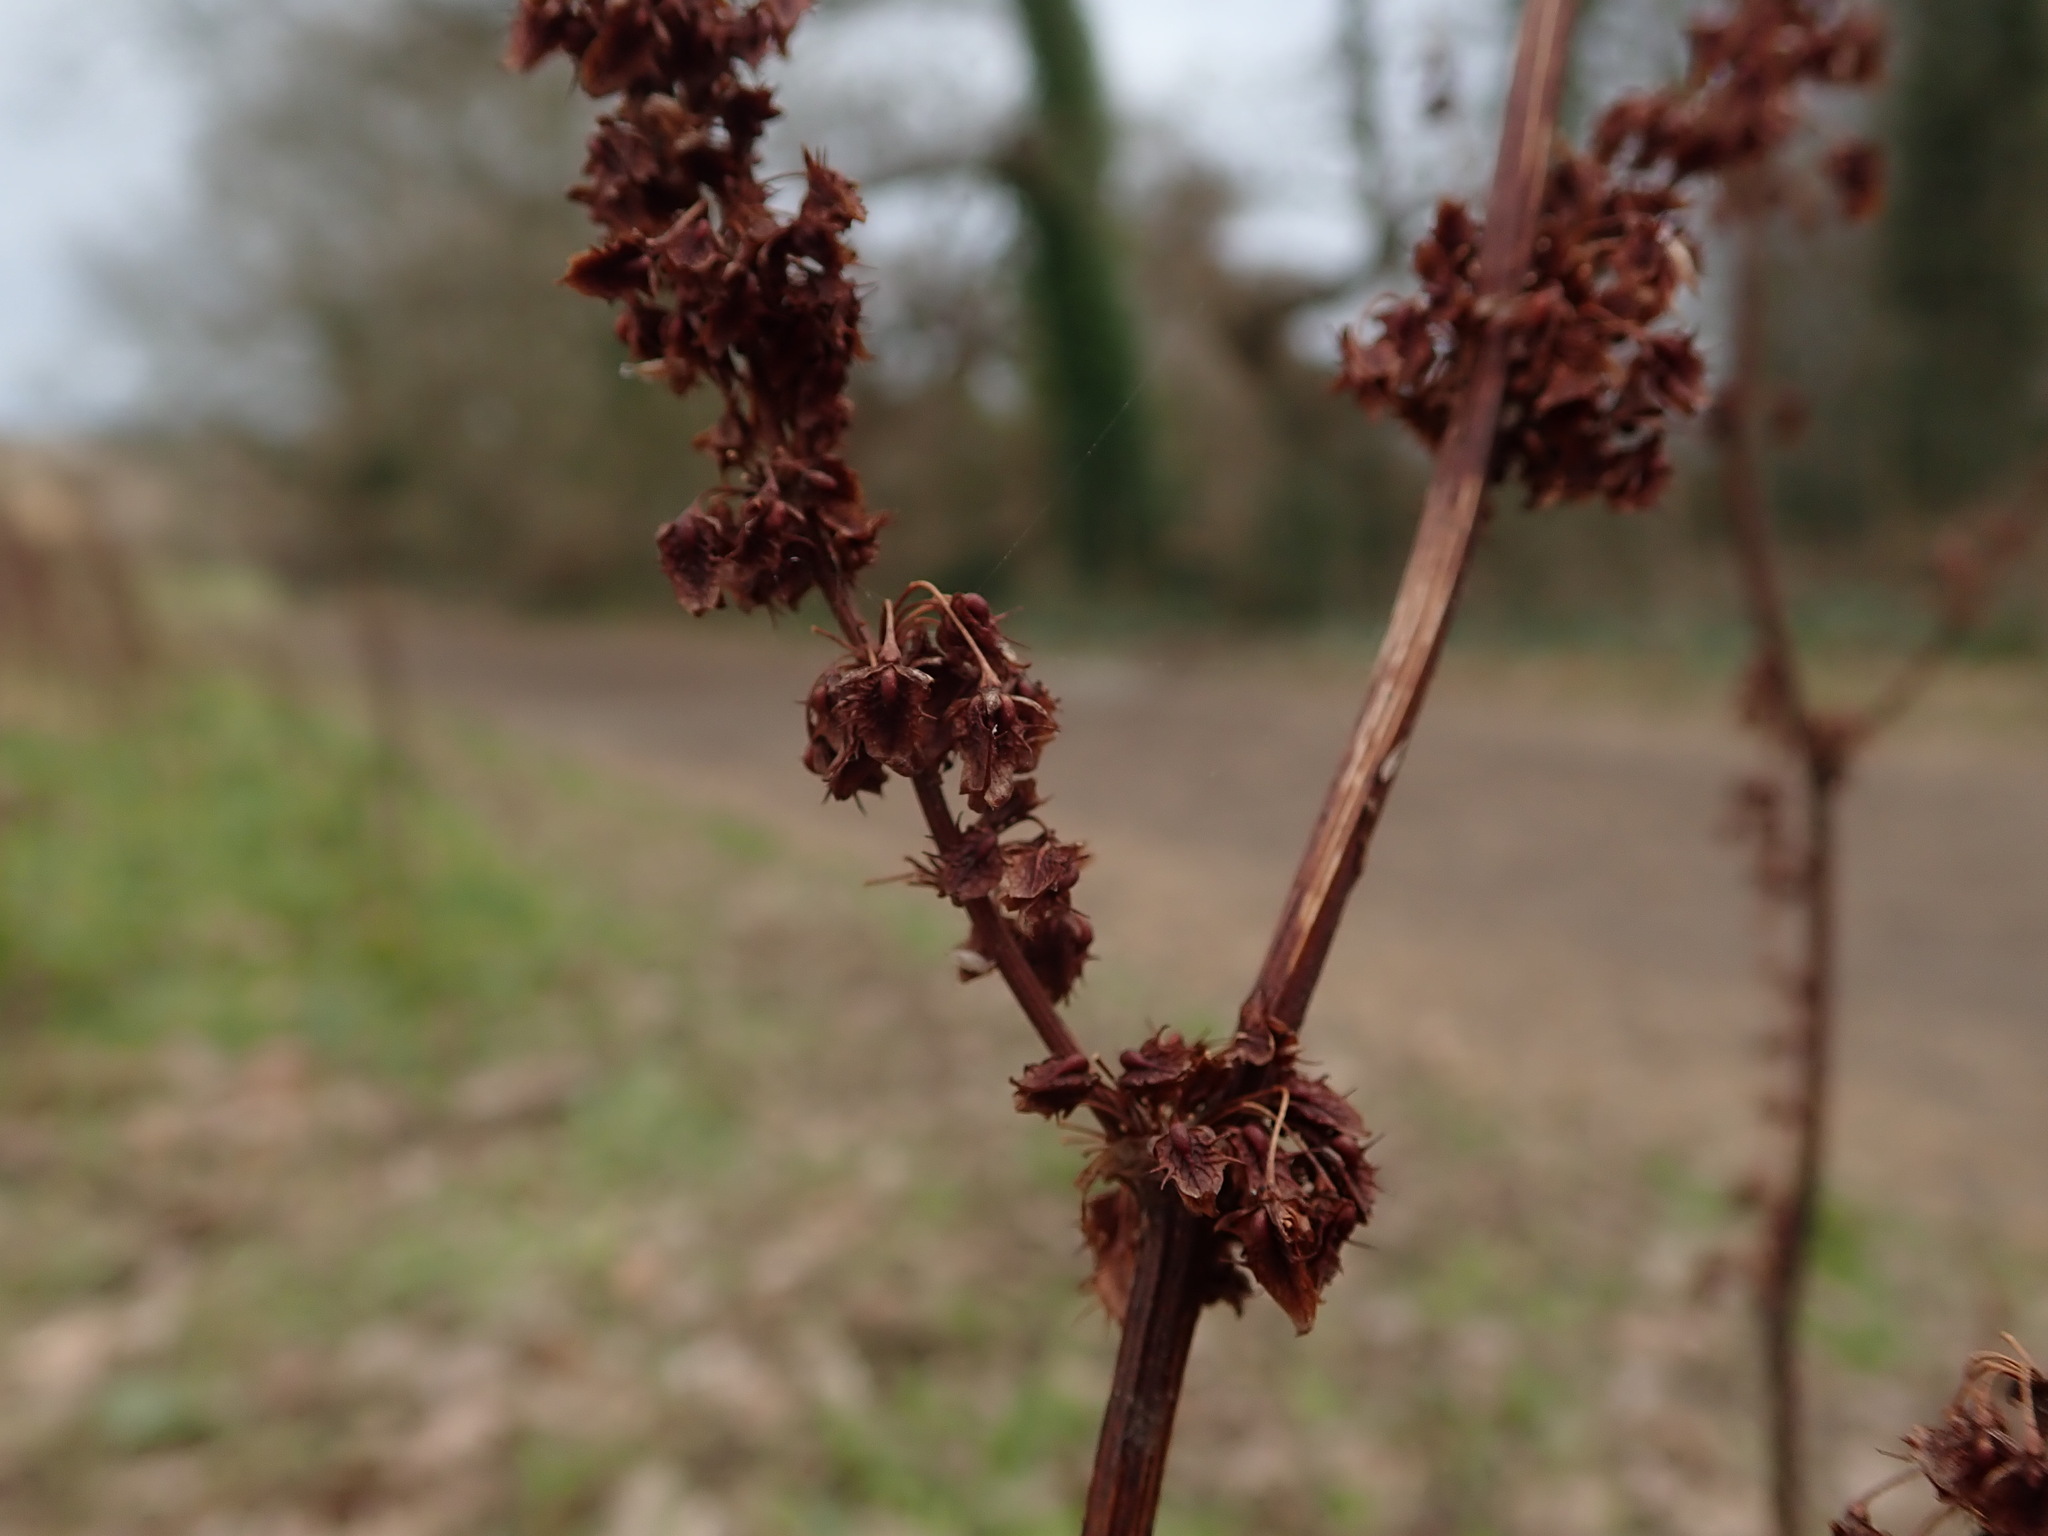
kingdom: Plantae
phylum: Tracheophyta
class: Magnoliopsida
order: Caryophyllales
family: Polygonaceae
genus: Rumex
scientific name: Rumex obtusifolius
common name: Bitter dock
